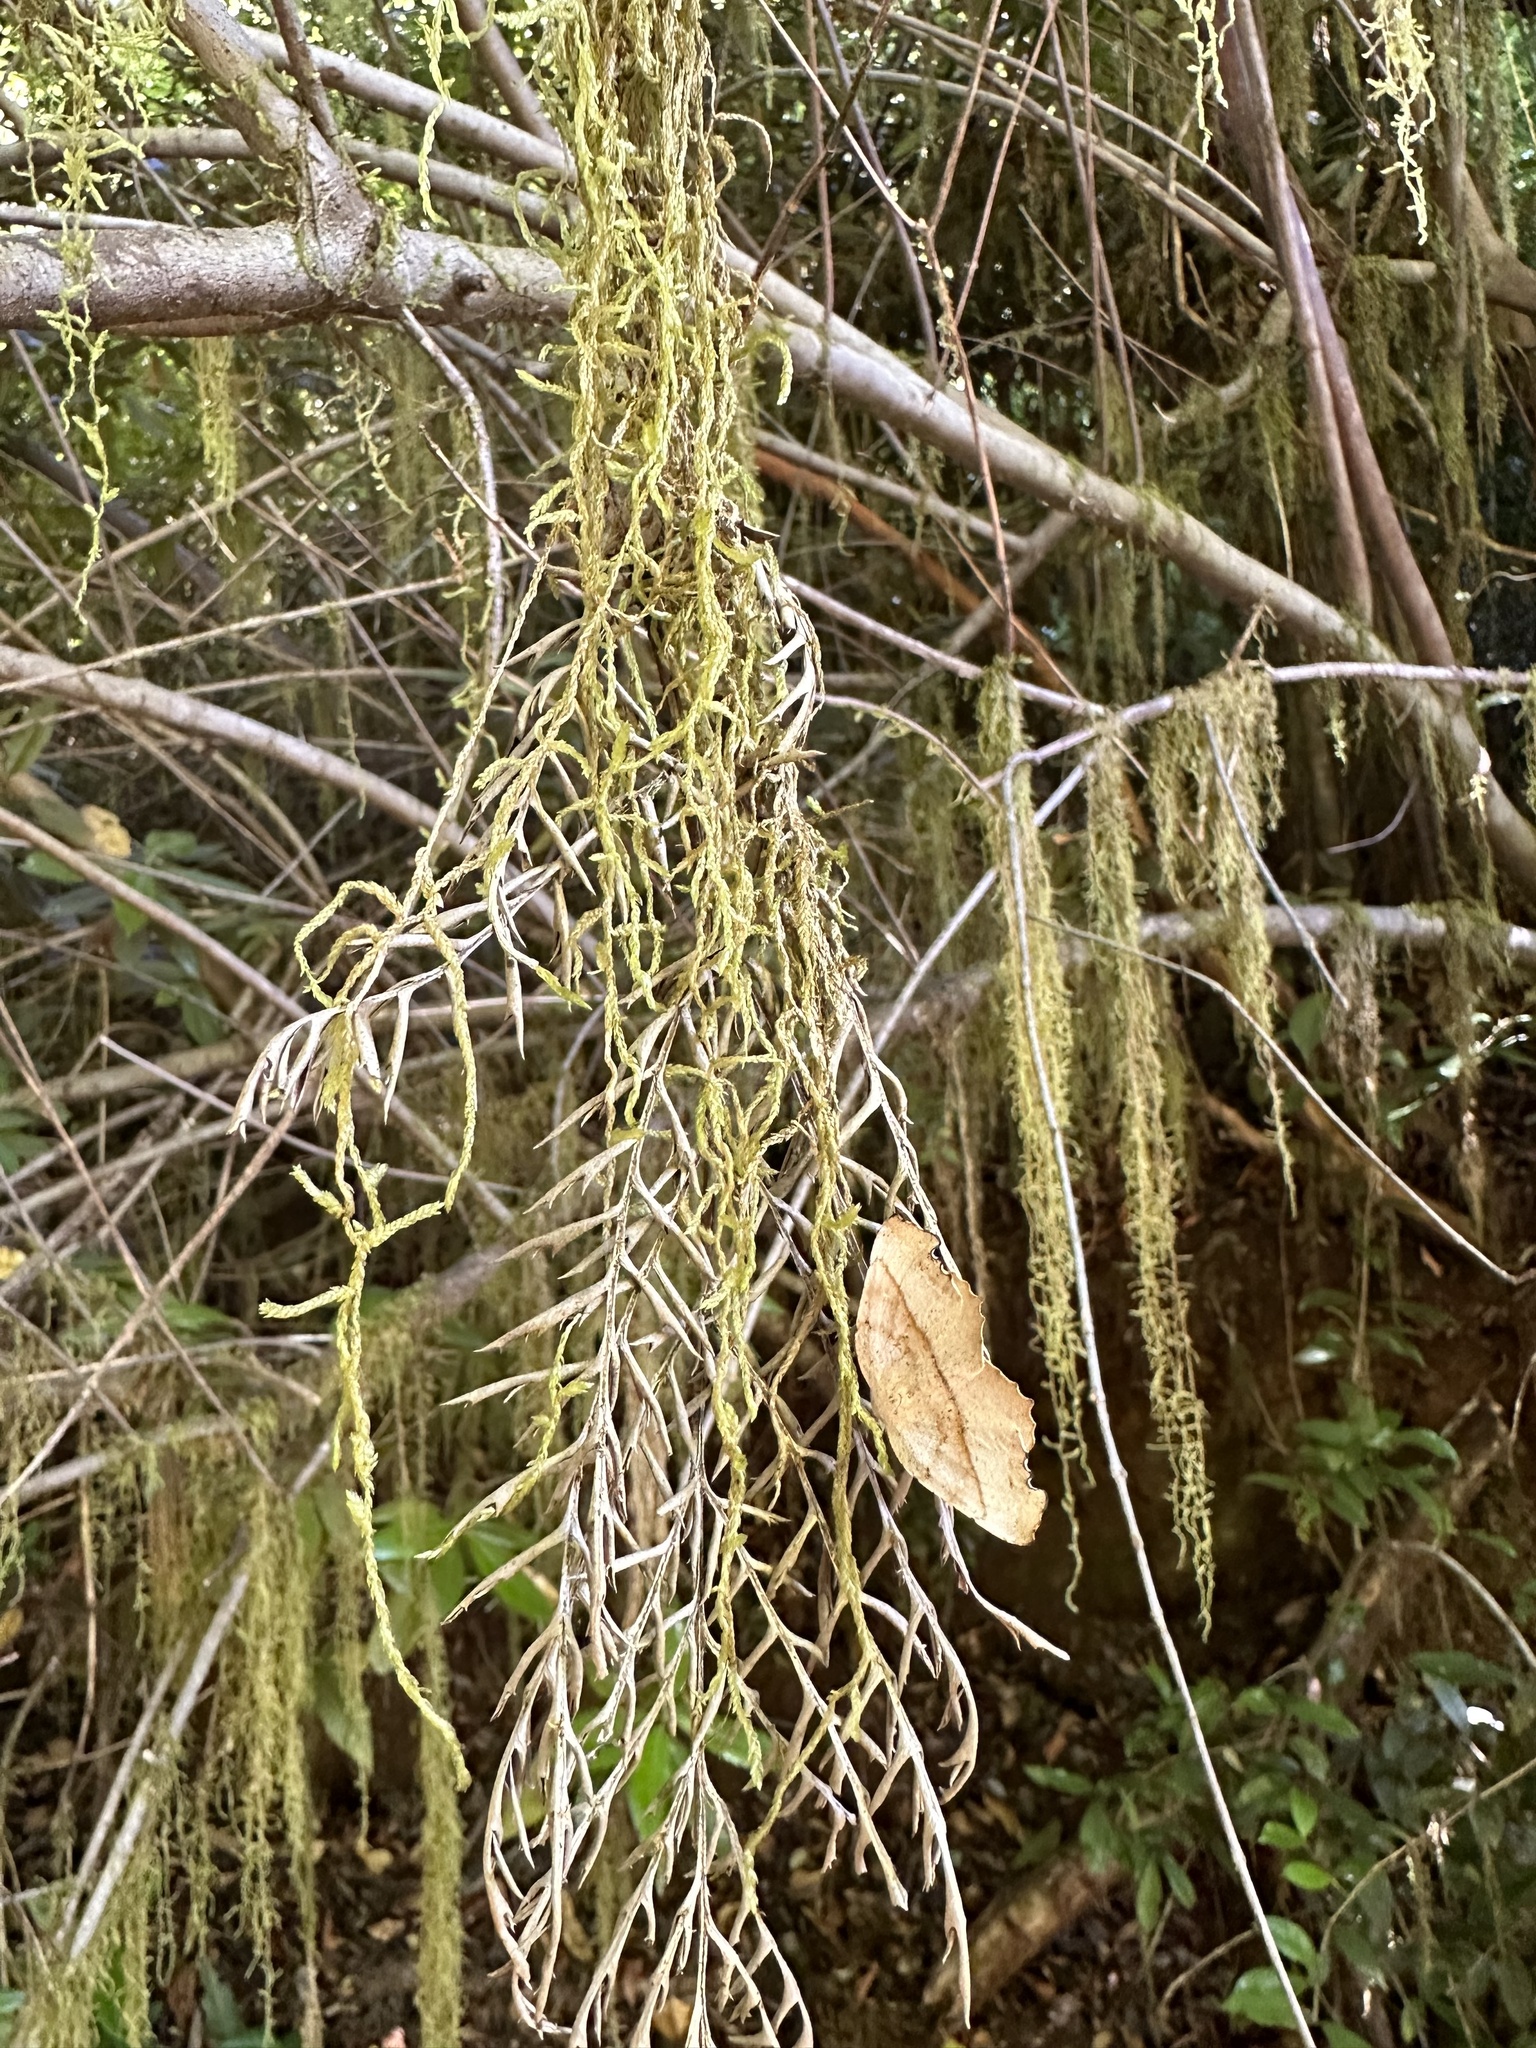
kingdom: Plantae
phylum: Bryophyta
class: Bryopsida
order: Hypnales
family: Lembophyllaceae
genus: Weymouthia
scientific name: Weymouthia mollis
